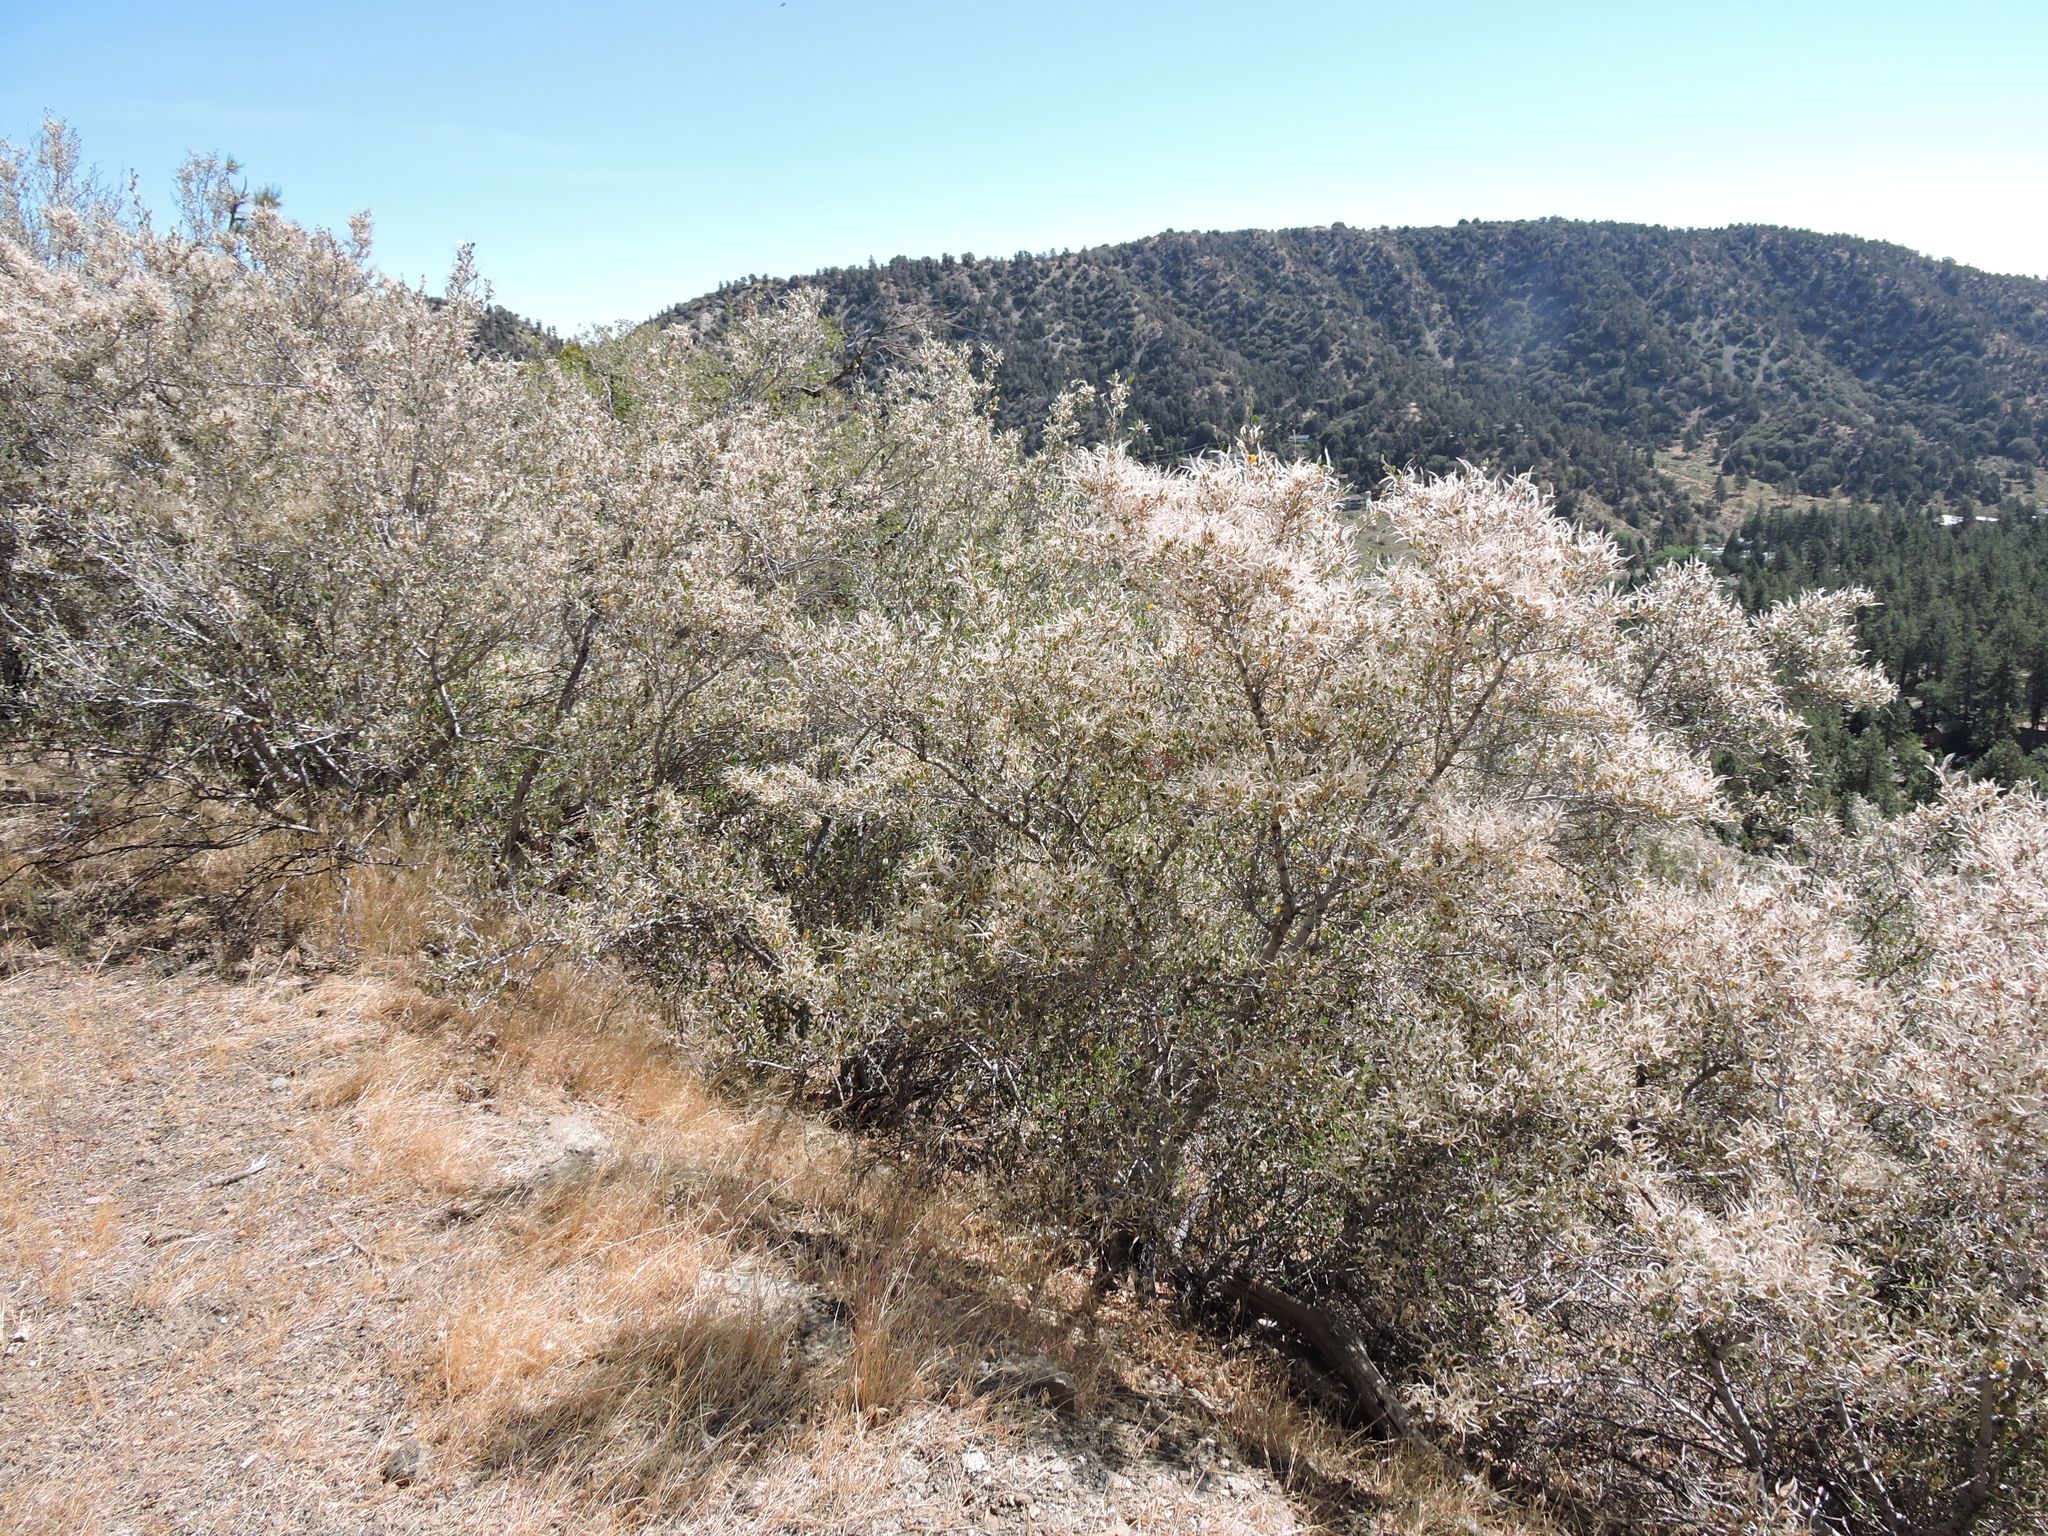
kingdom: Plantae
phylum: Tracheophyta
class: Magnoliopsida
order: Rosales
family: Rosaceae
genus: Cercocarpus
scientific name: Cercocarpus betuloides
